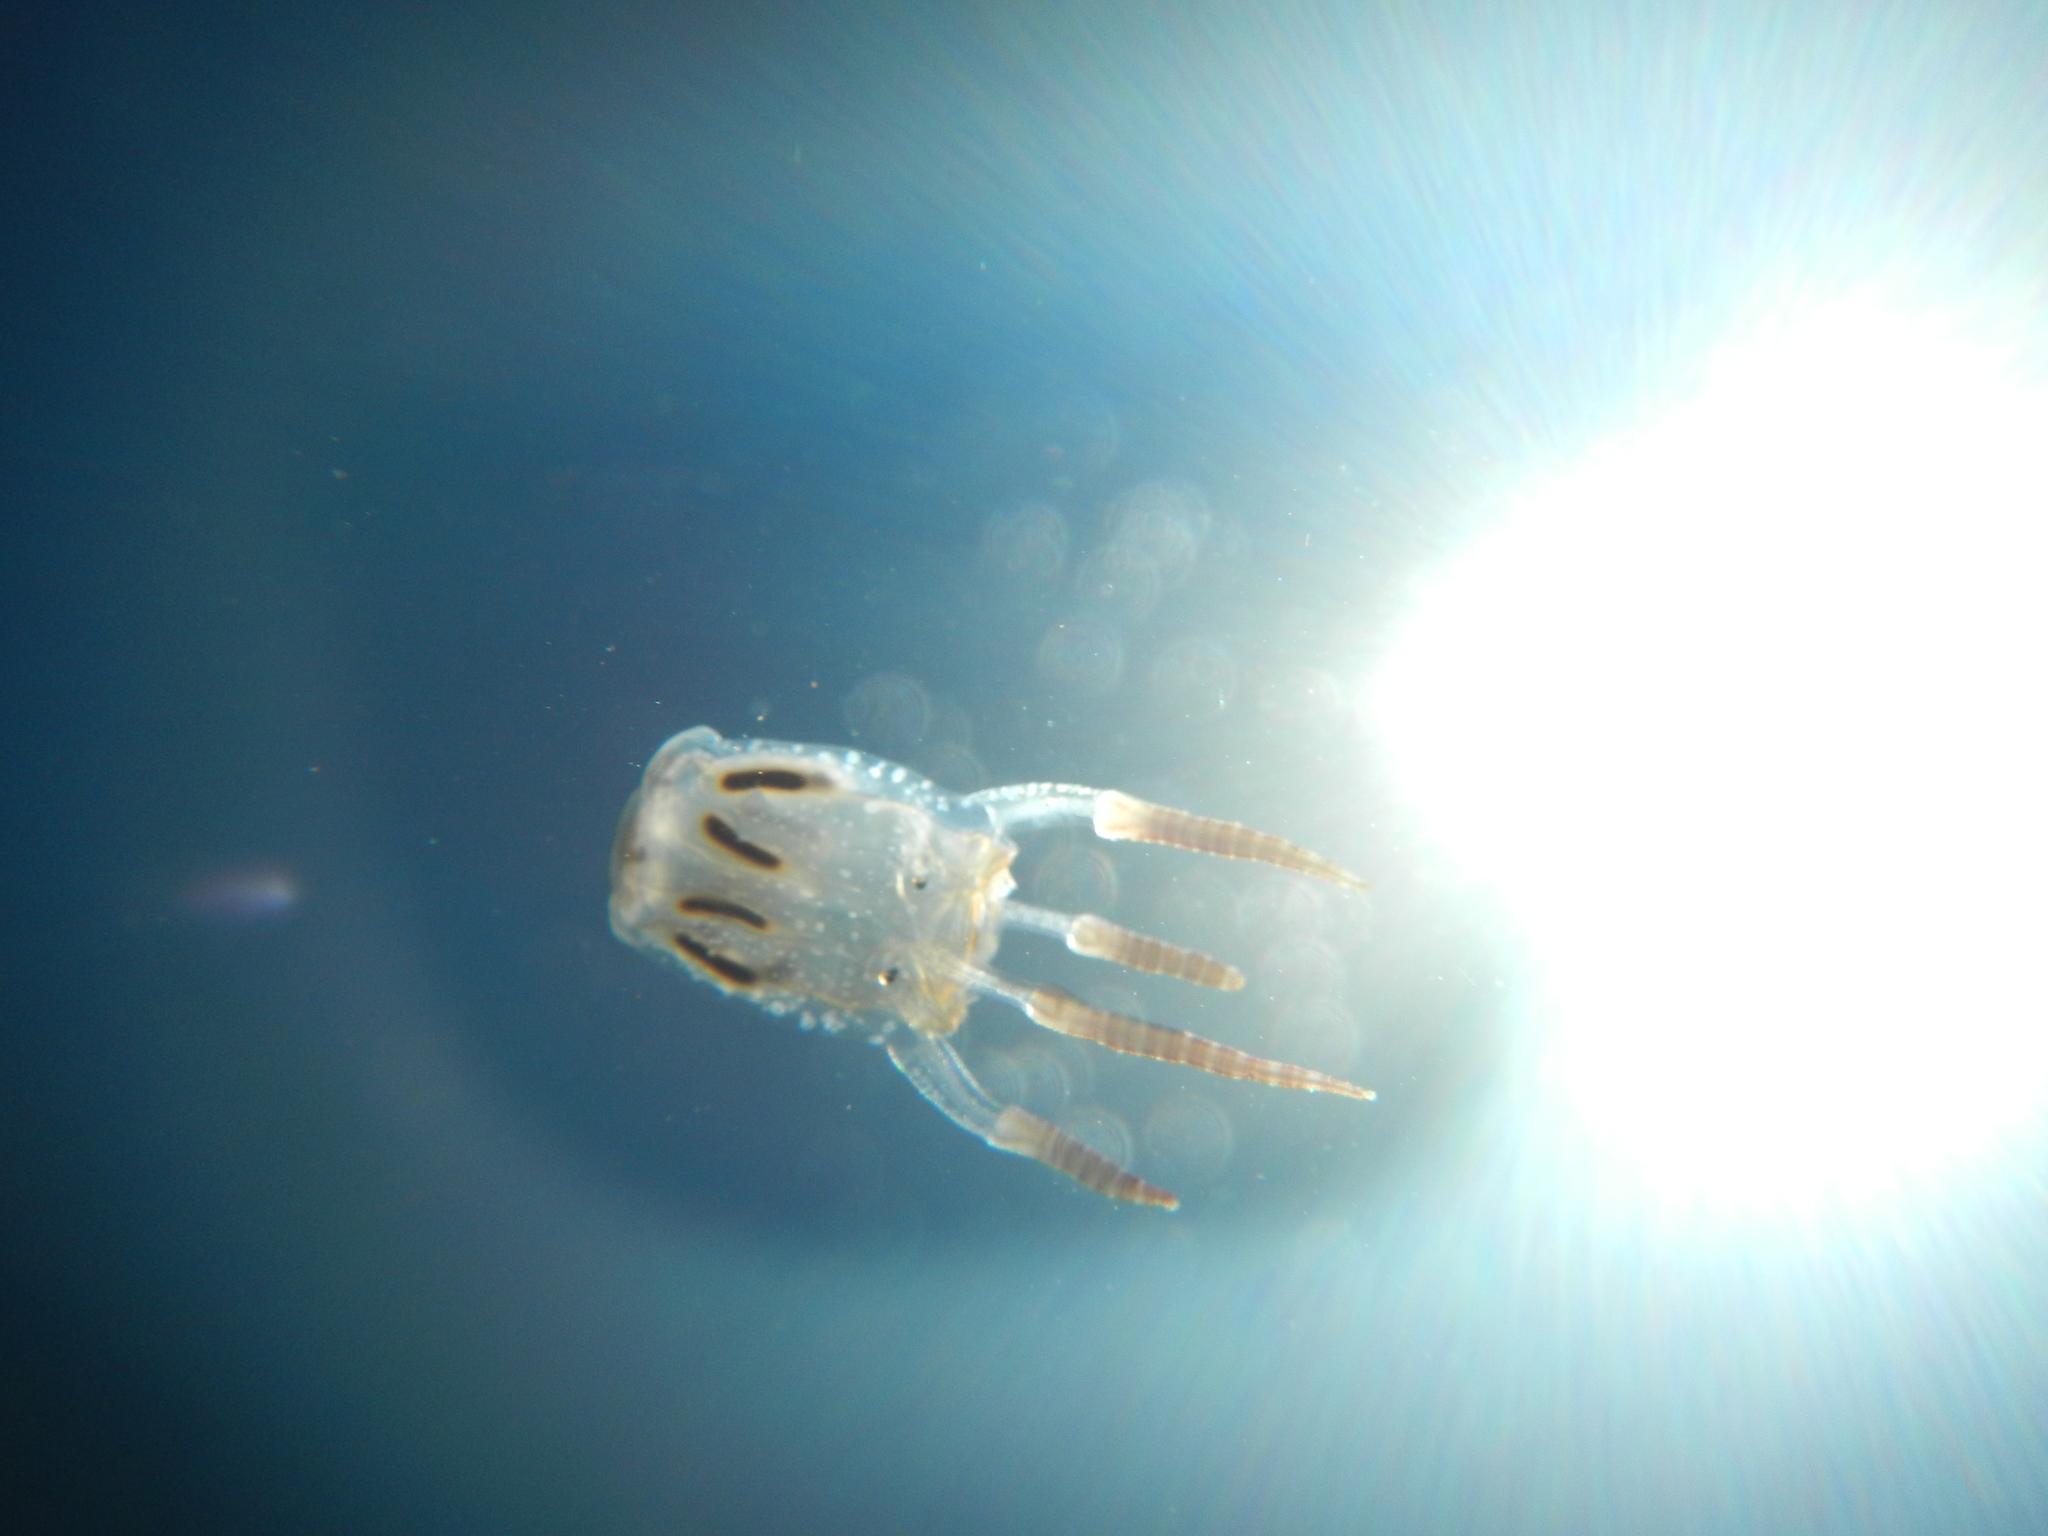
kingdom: Animalia
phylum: Cnidaria
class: Cubozoa
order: Carybdeida
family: Tripedaliidae
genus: Copula
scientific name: Copula sivickisi
